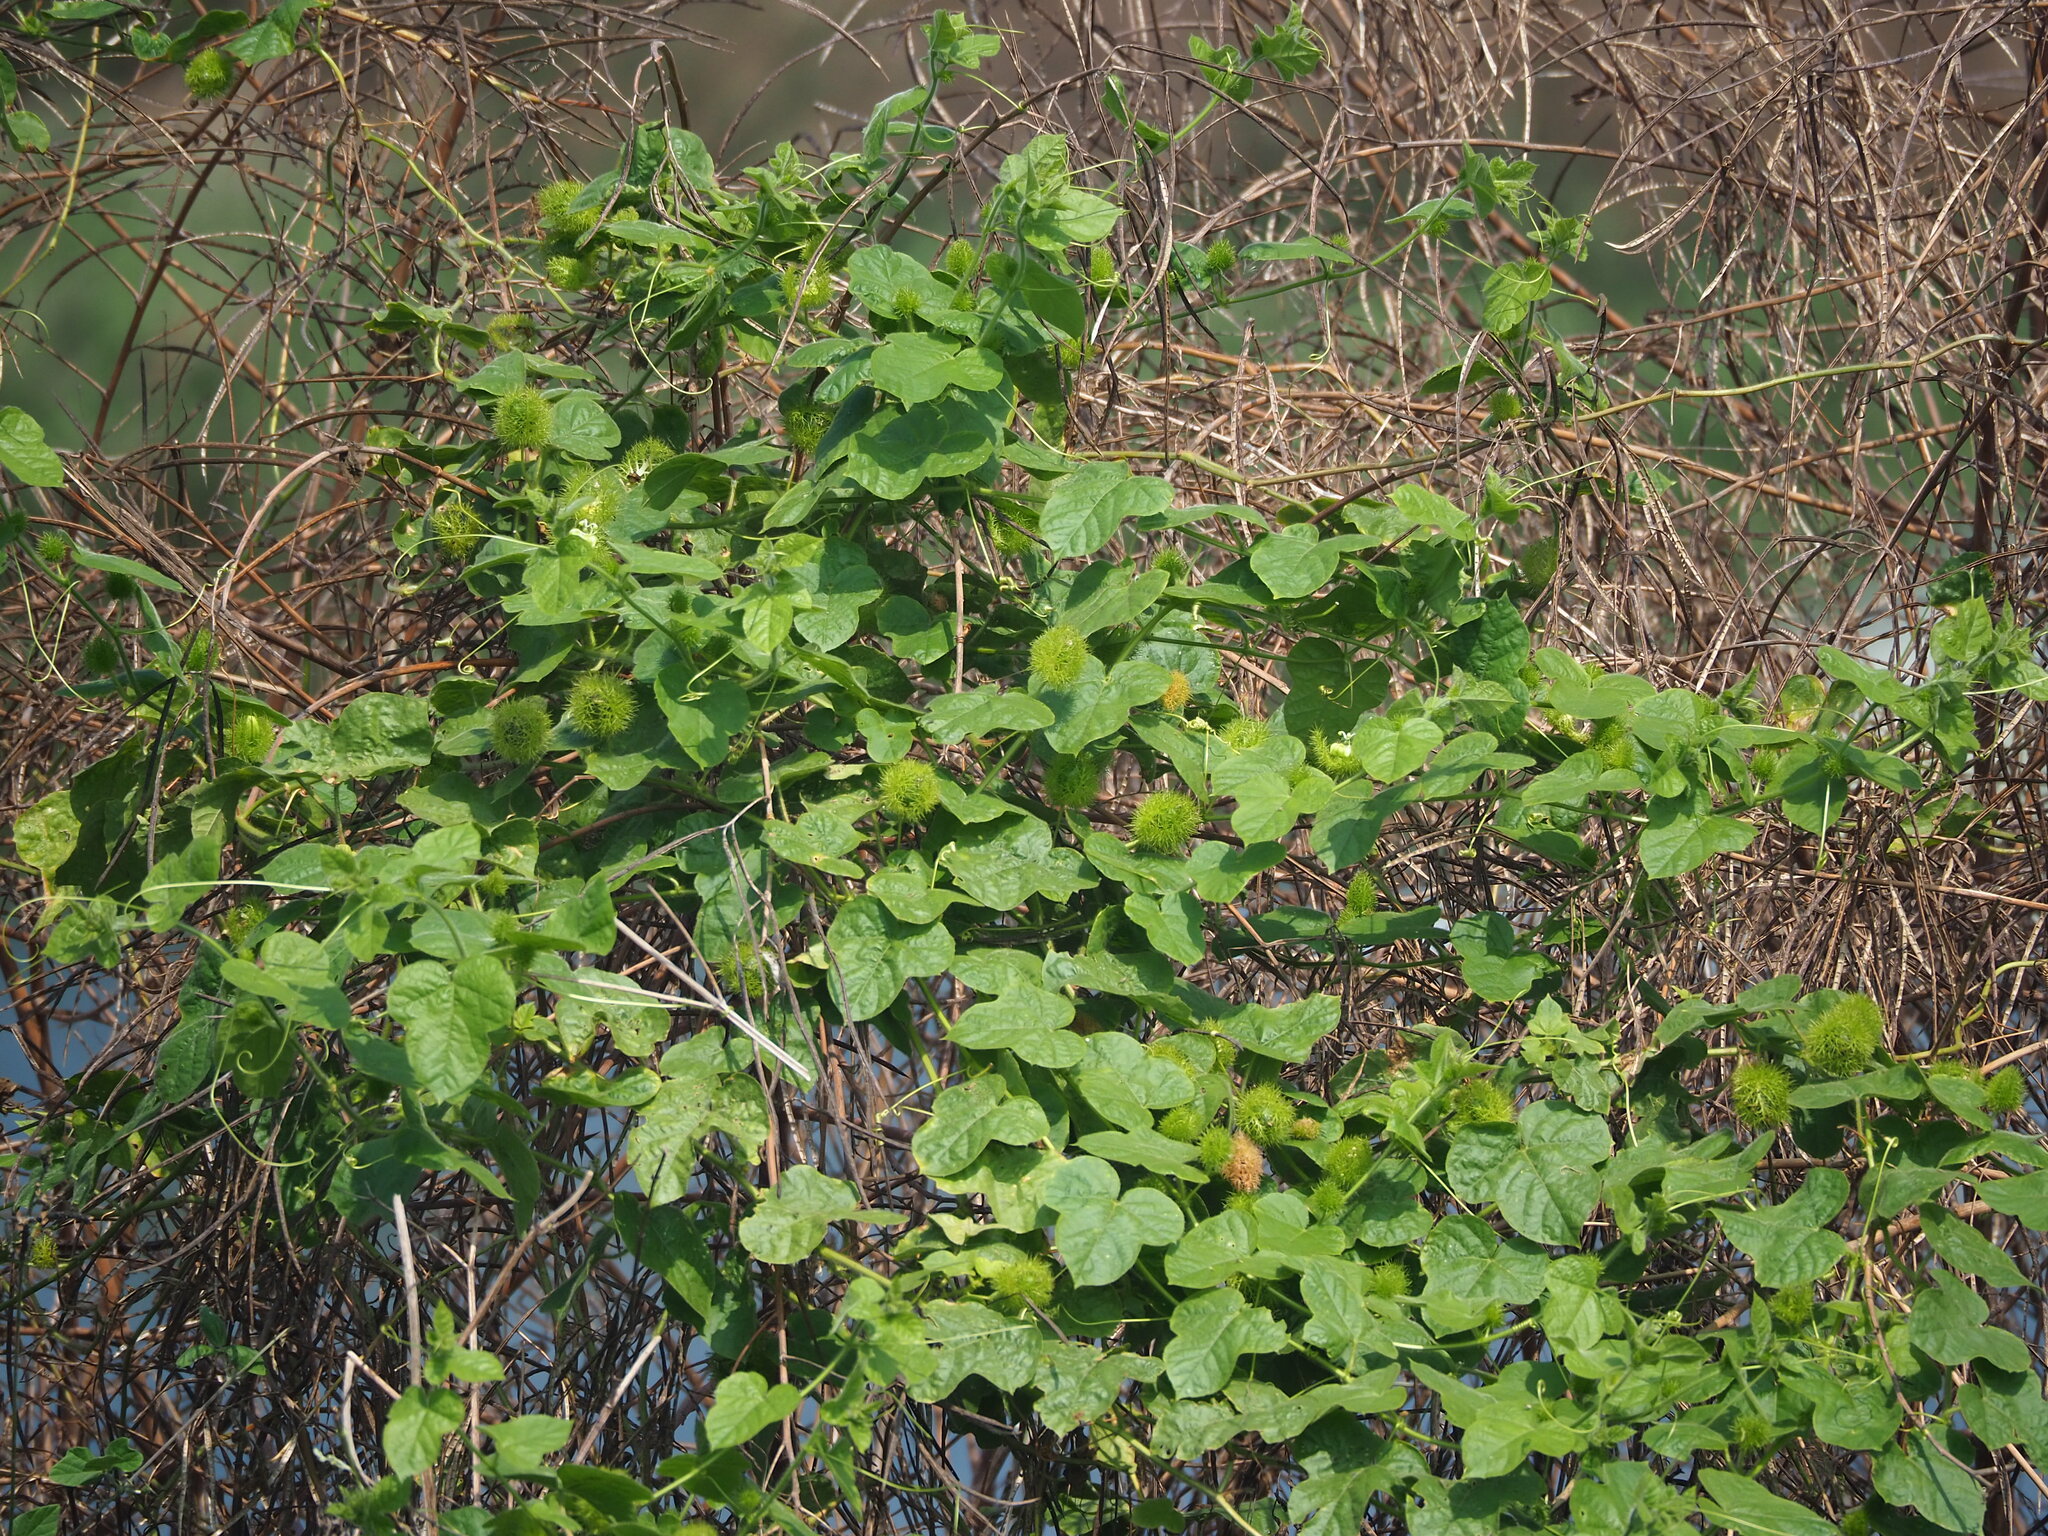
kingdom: Plantae
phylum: Tracheophyta
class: Magnoliopsida
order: Malpighiales
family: Passifloraceae
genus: Passiflora
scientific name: Passiflora vesicaria
